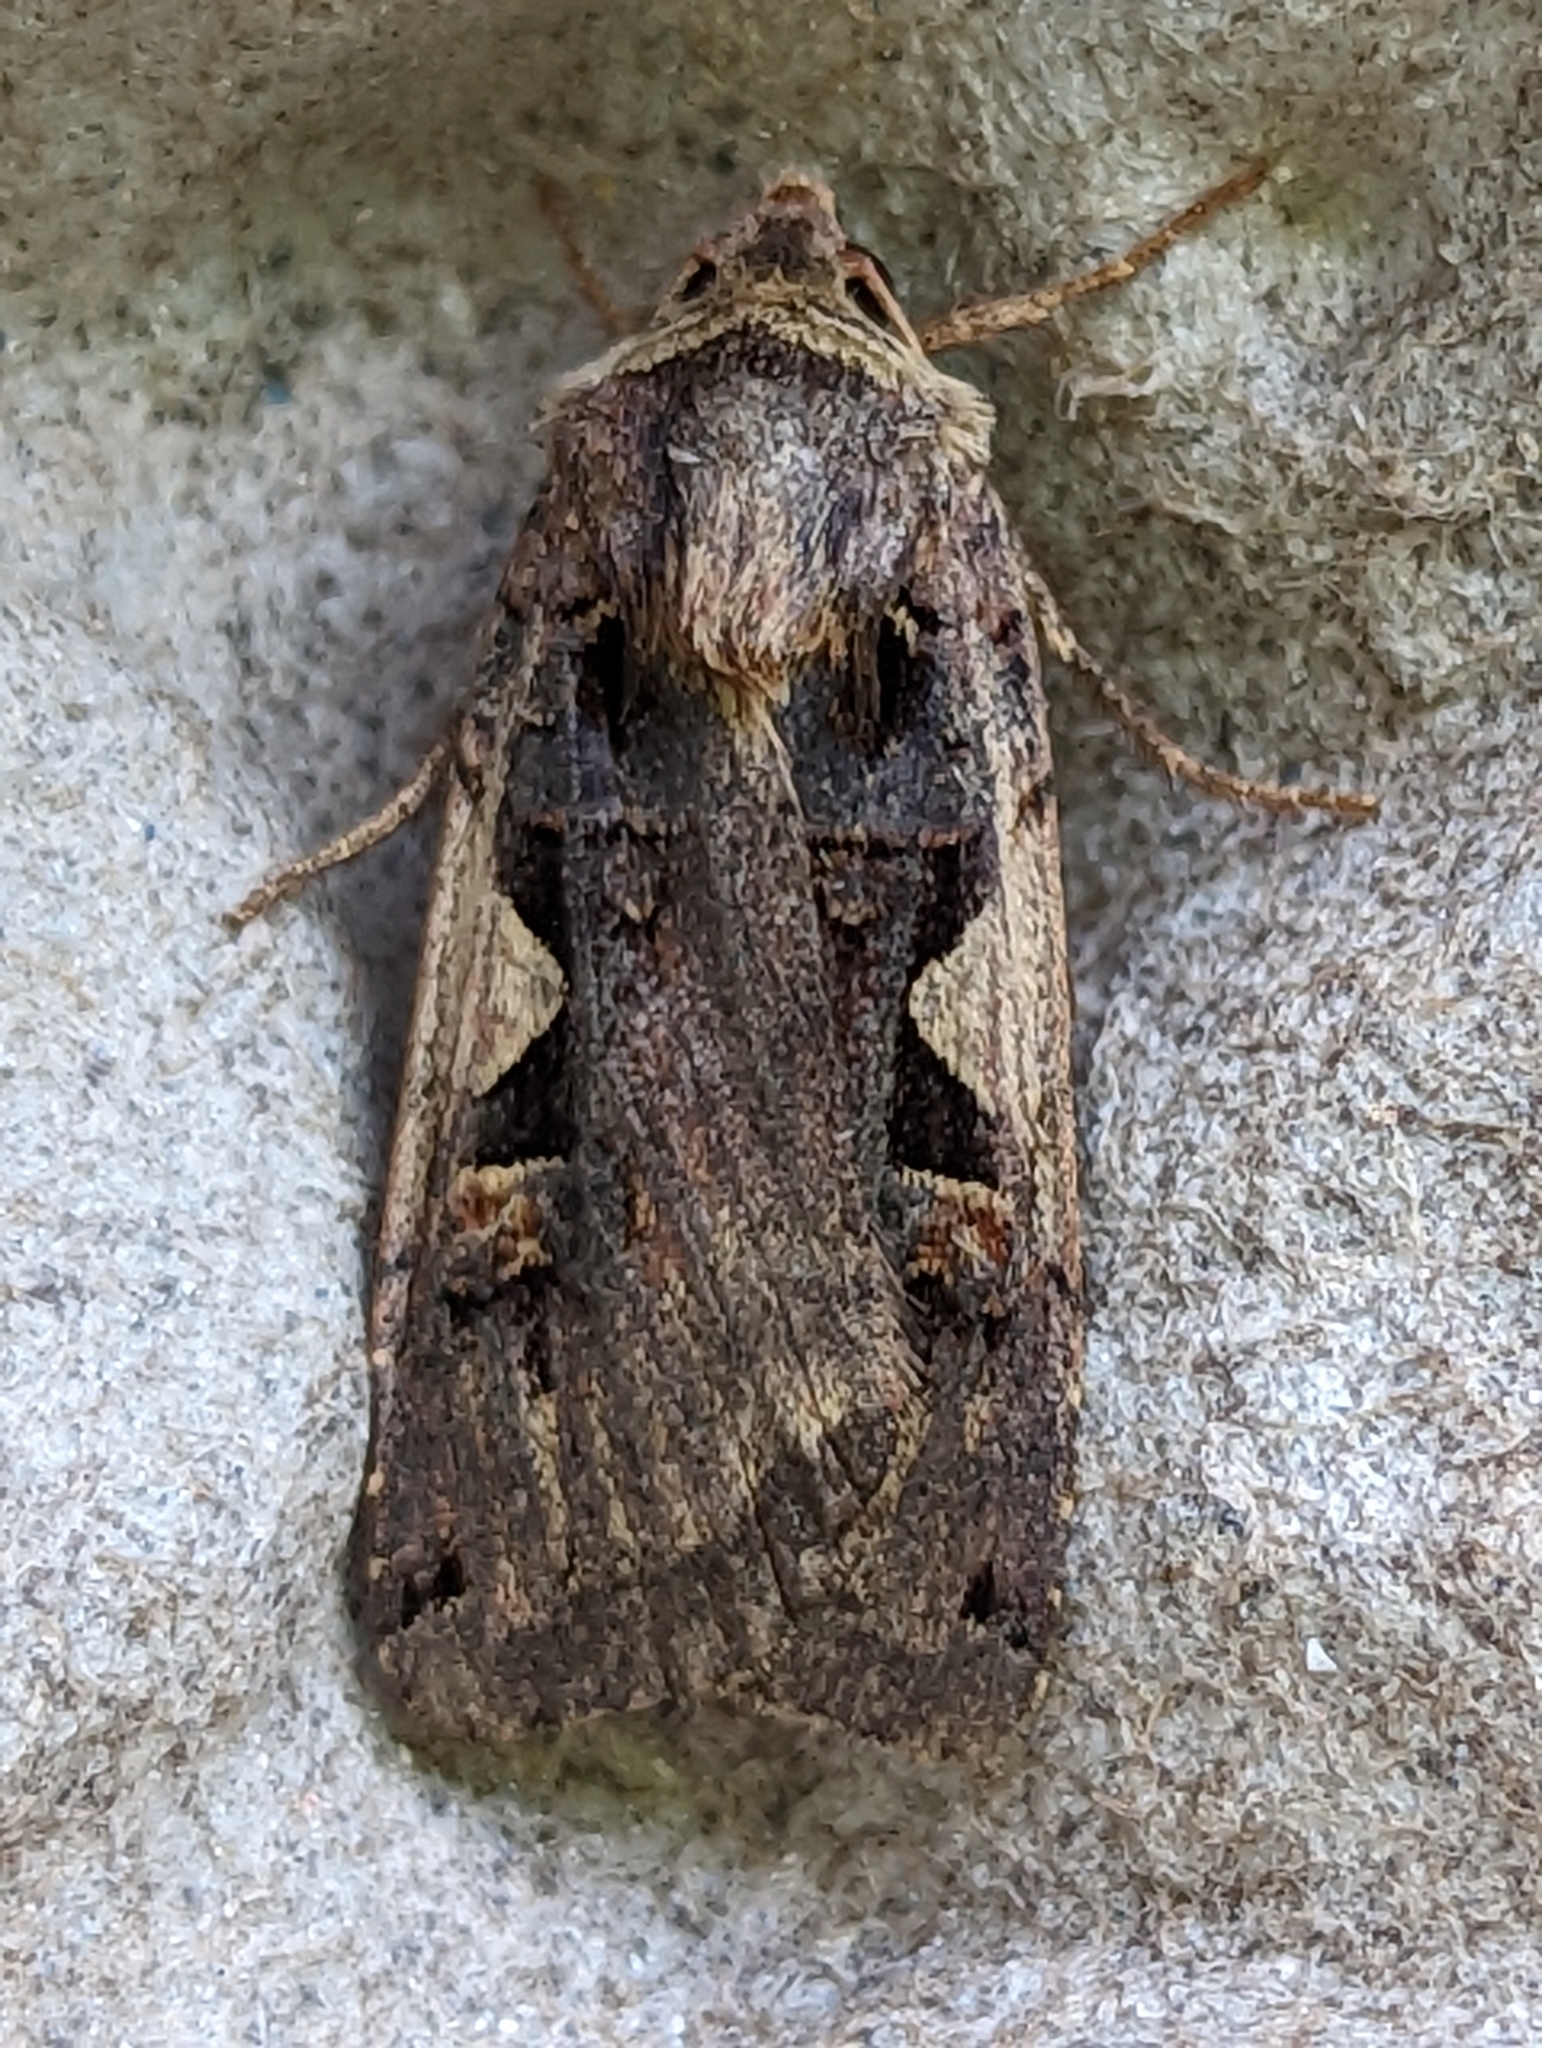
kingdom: Animalia
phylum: Arthropoda
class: Insecta
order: Lepidoptera
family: Noctuidae
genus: Xestia
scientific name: Xestia c-nigrum
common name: Setaceous hebrew character
